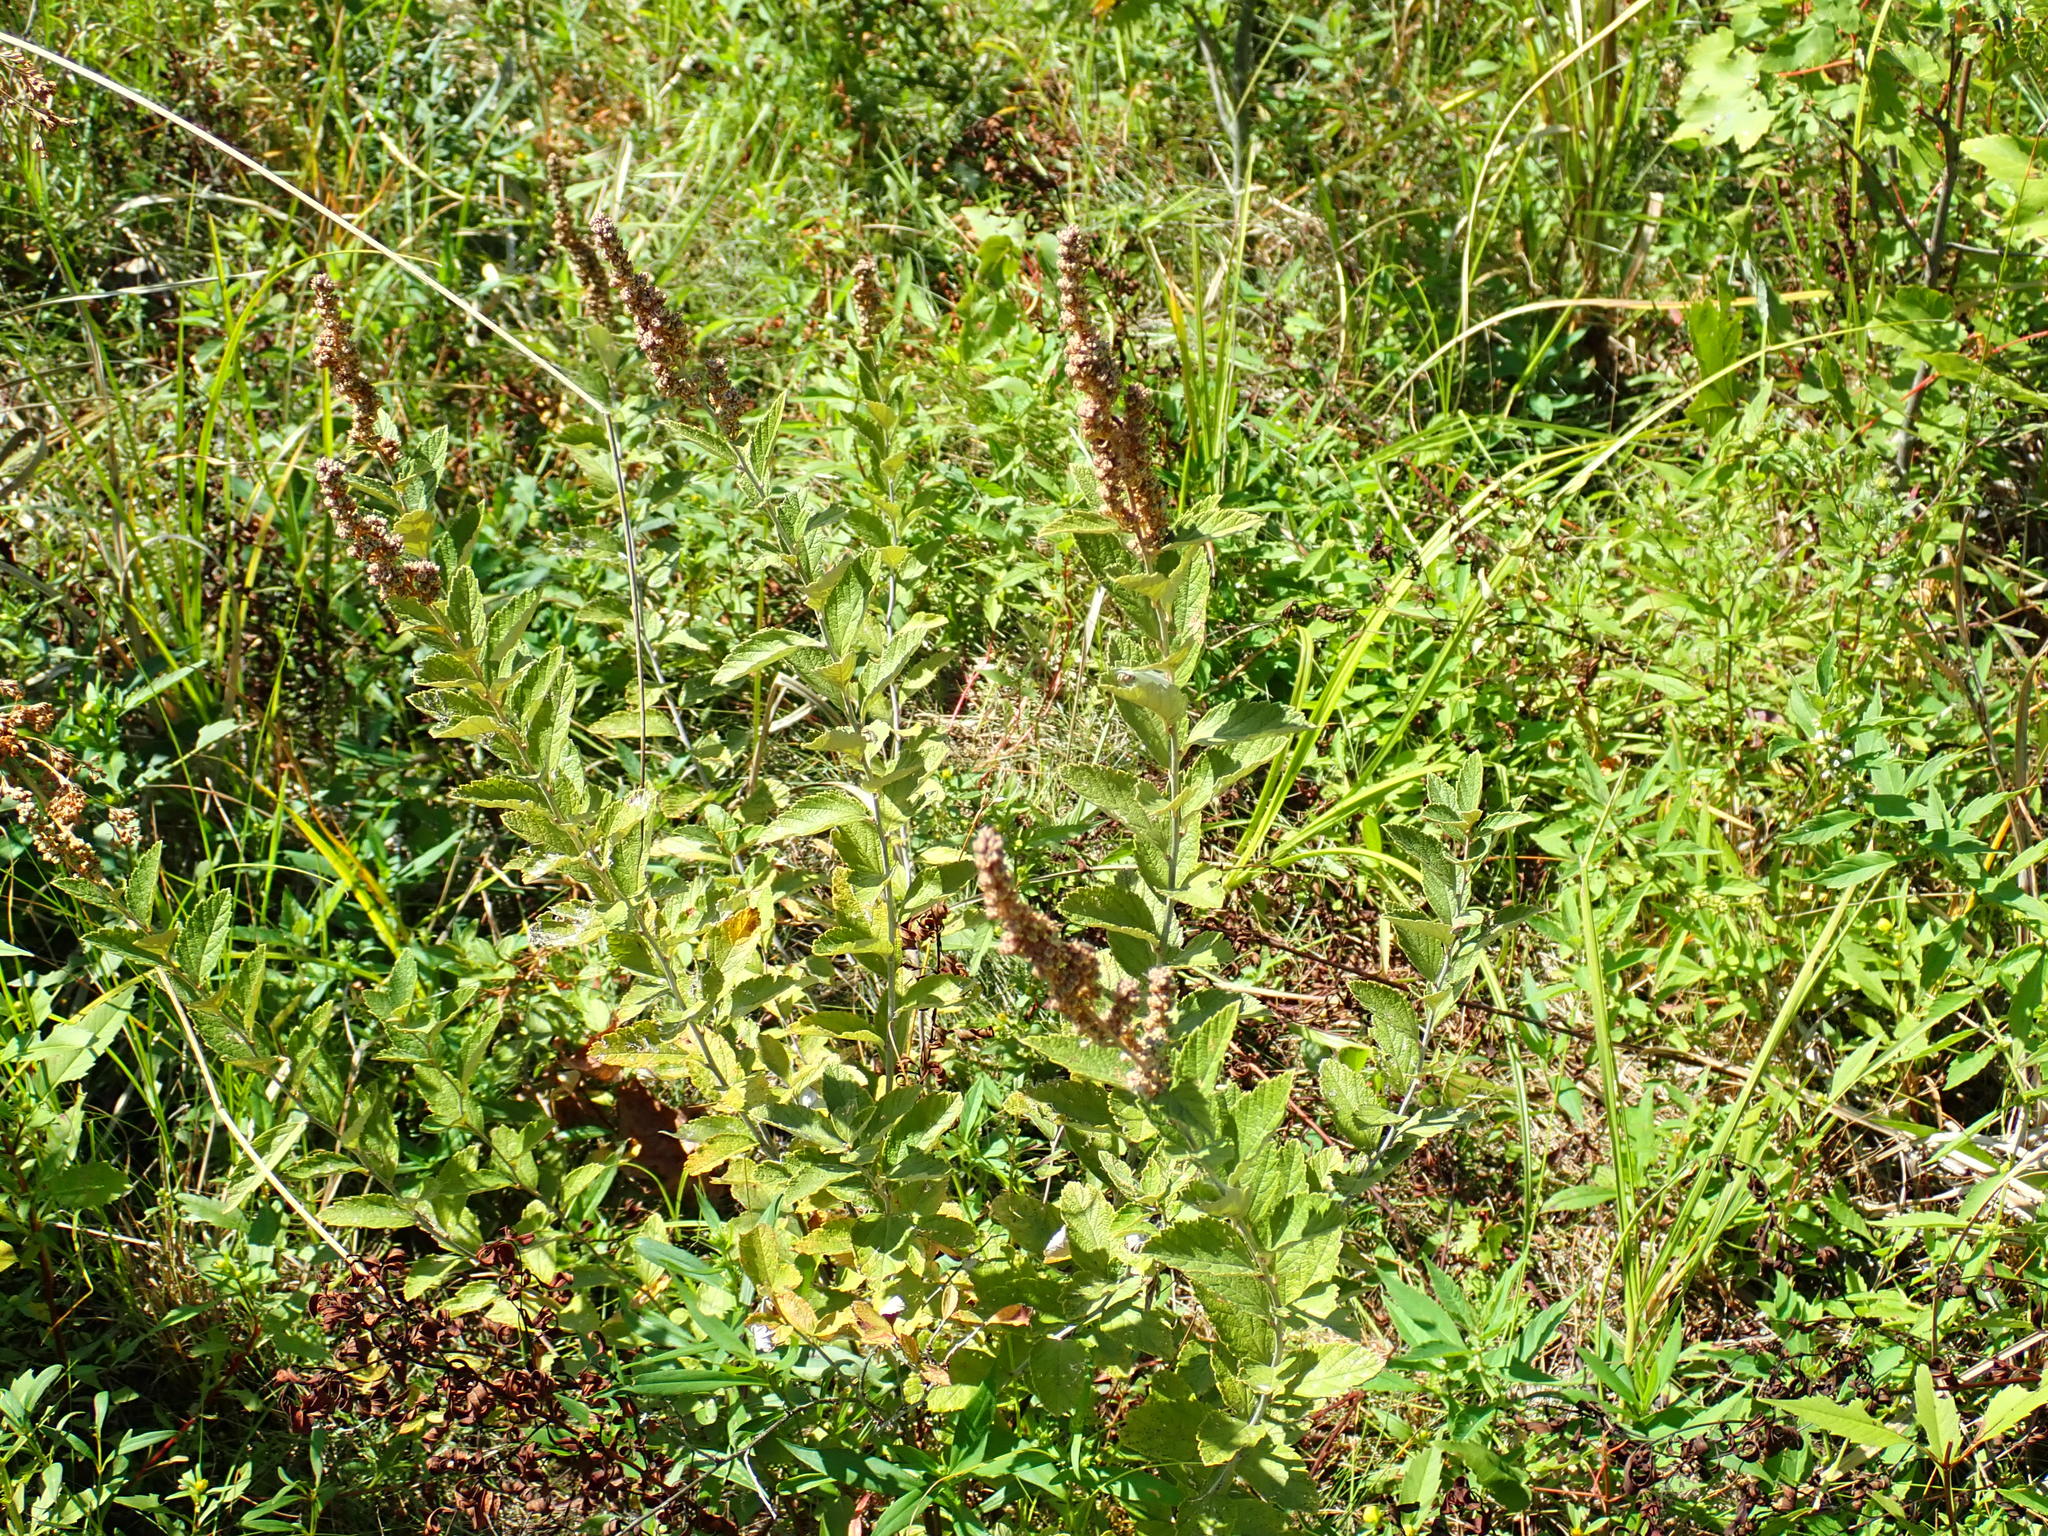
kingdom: Plantae
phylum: Tracheophyta
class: Magnoliopsida
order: Rosales
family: Rosaceae
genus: Spiraea
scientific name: Spiraea tomentosa
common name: Hardhack
